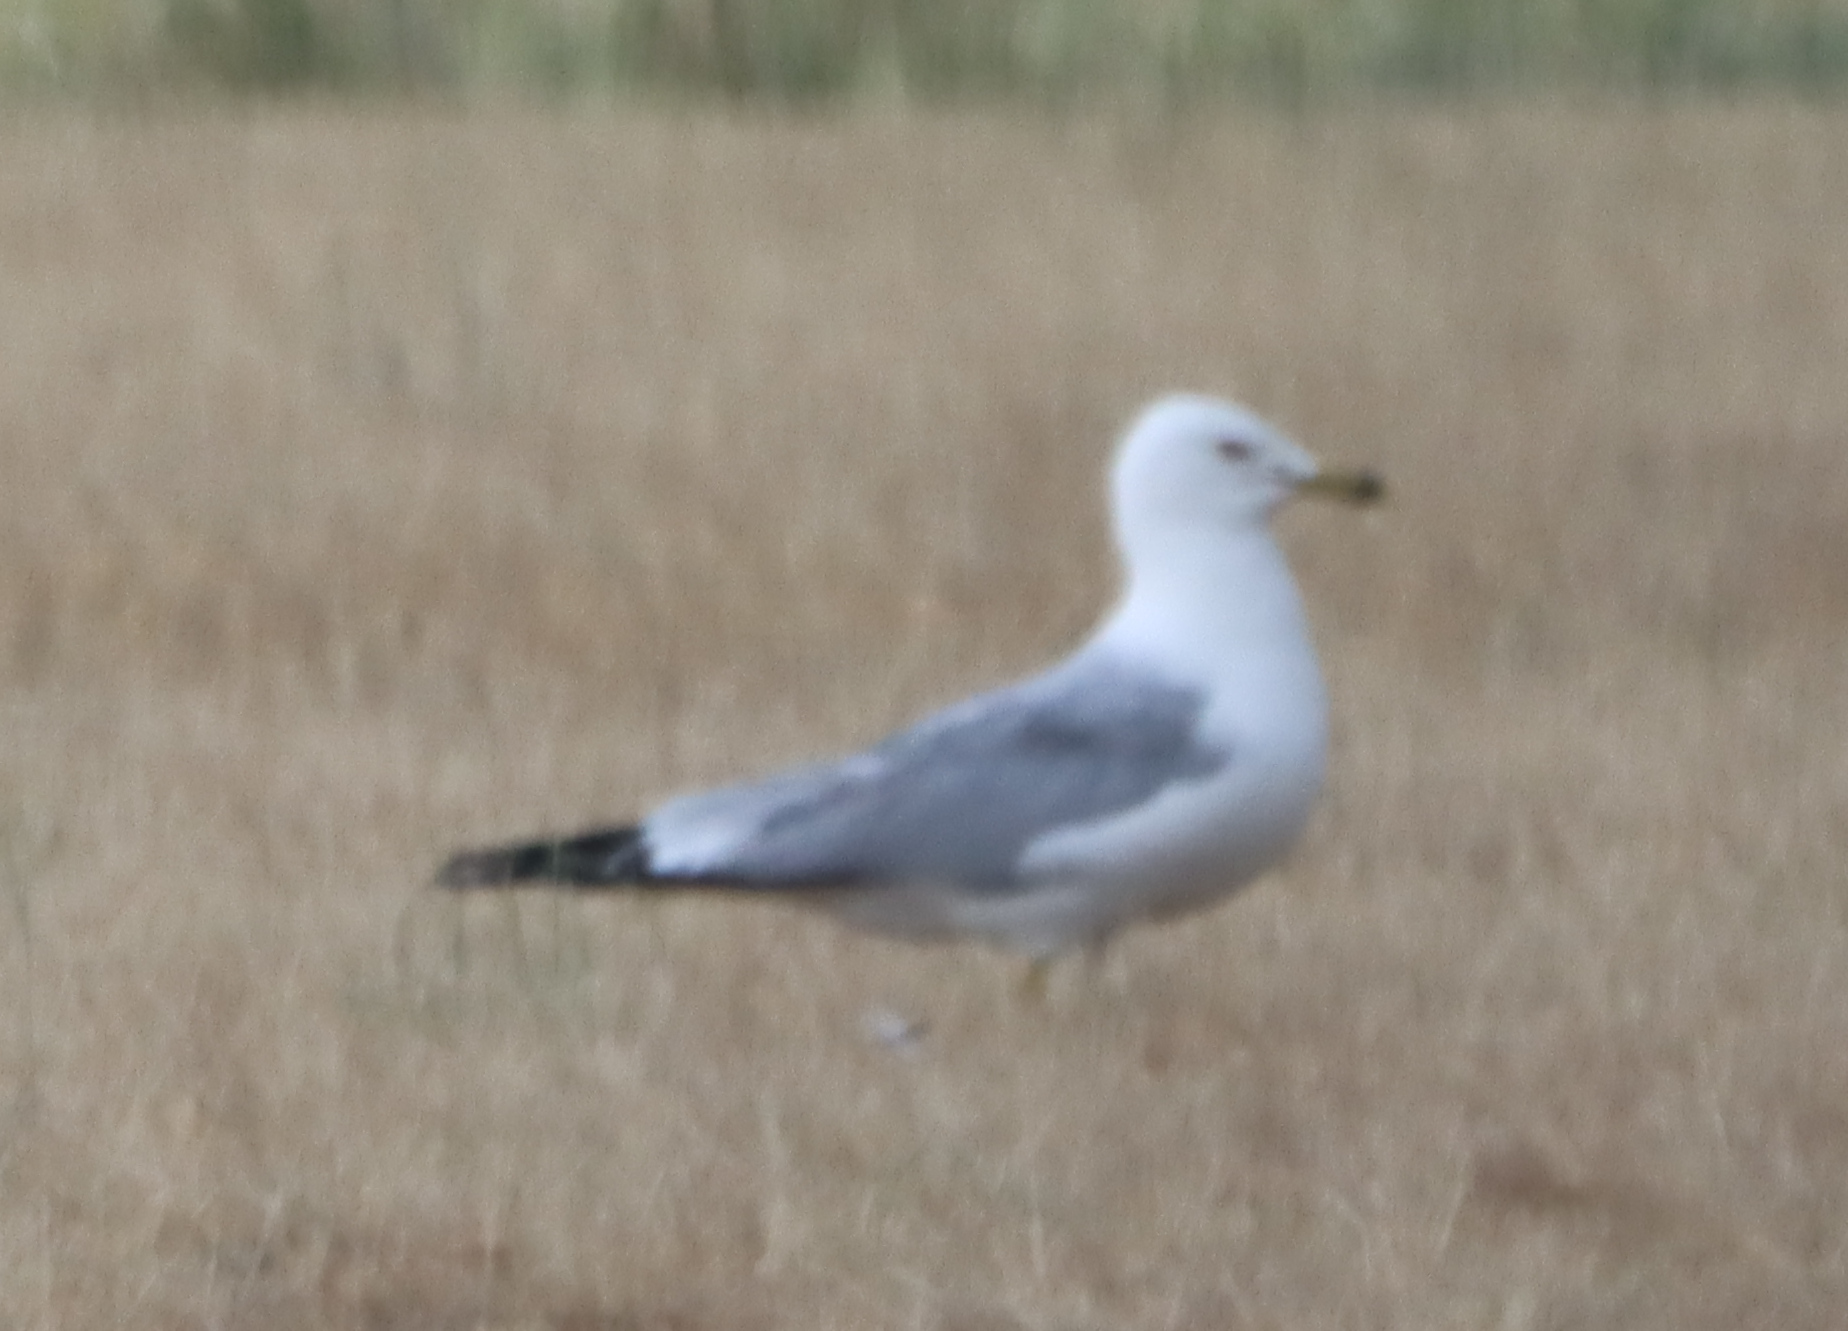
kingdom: Animalia
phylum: Chordata
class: Aves
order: Charadriiformes
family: Laridae
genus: Larus
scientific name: Larus delawarensis
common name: Ring-billed gull
